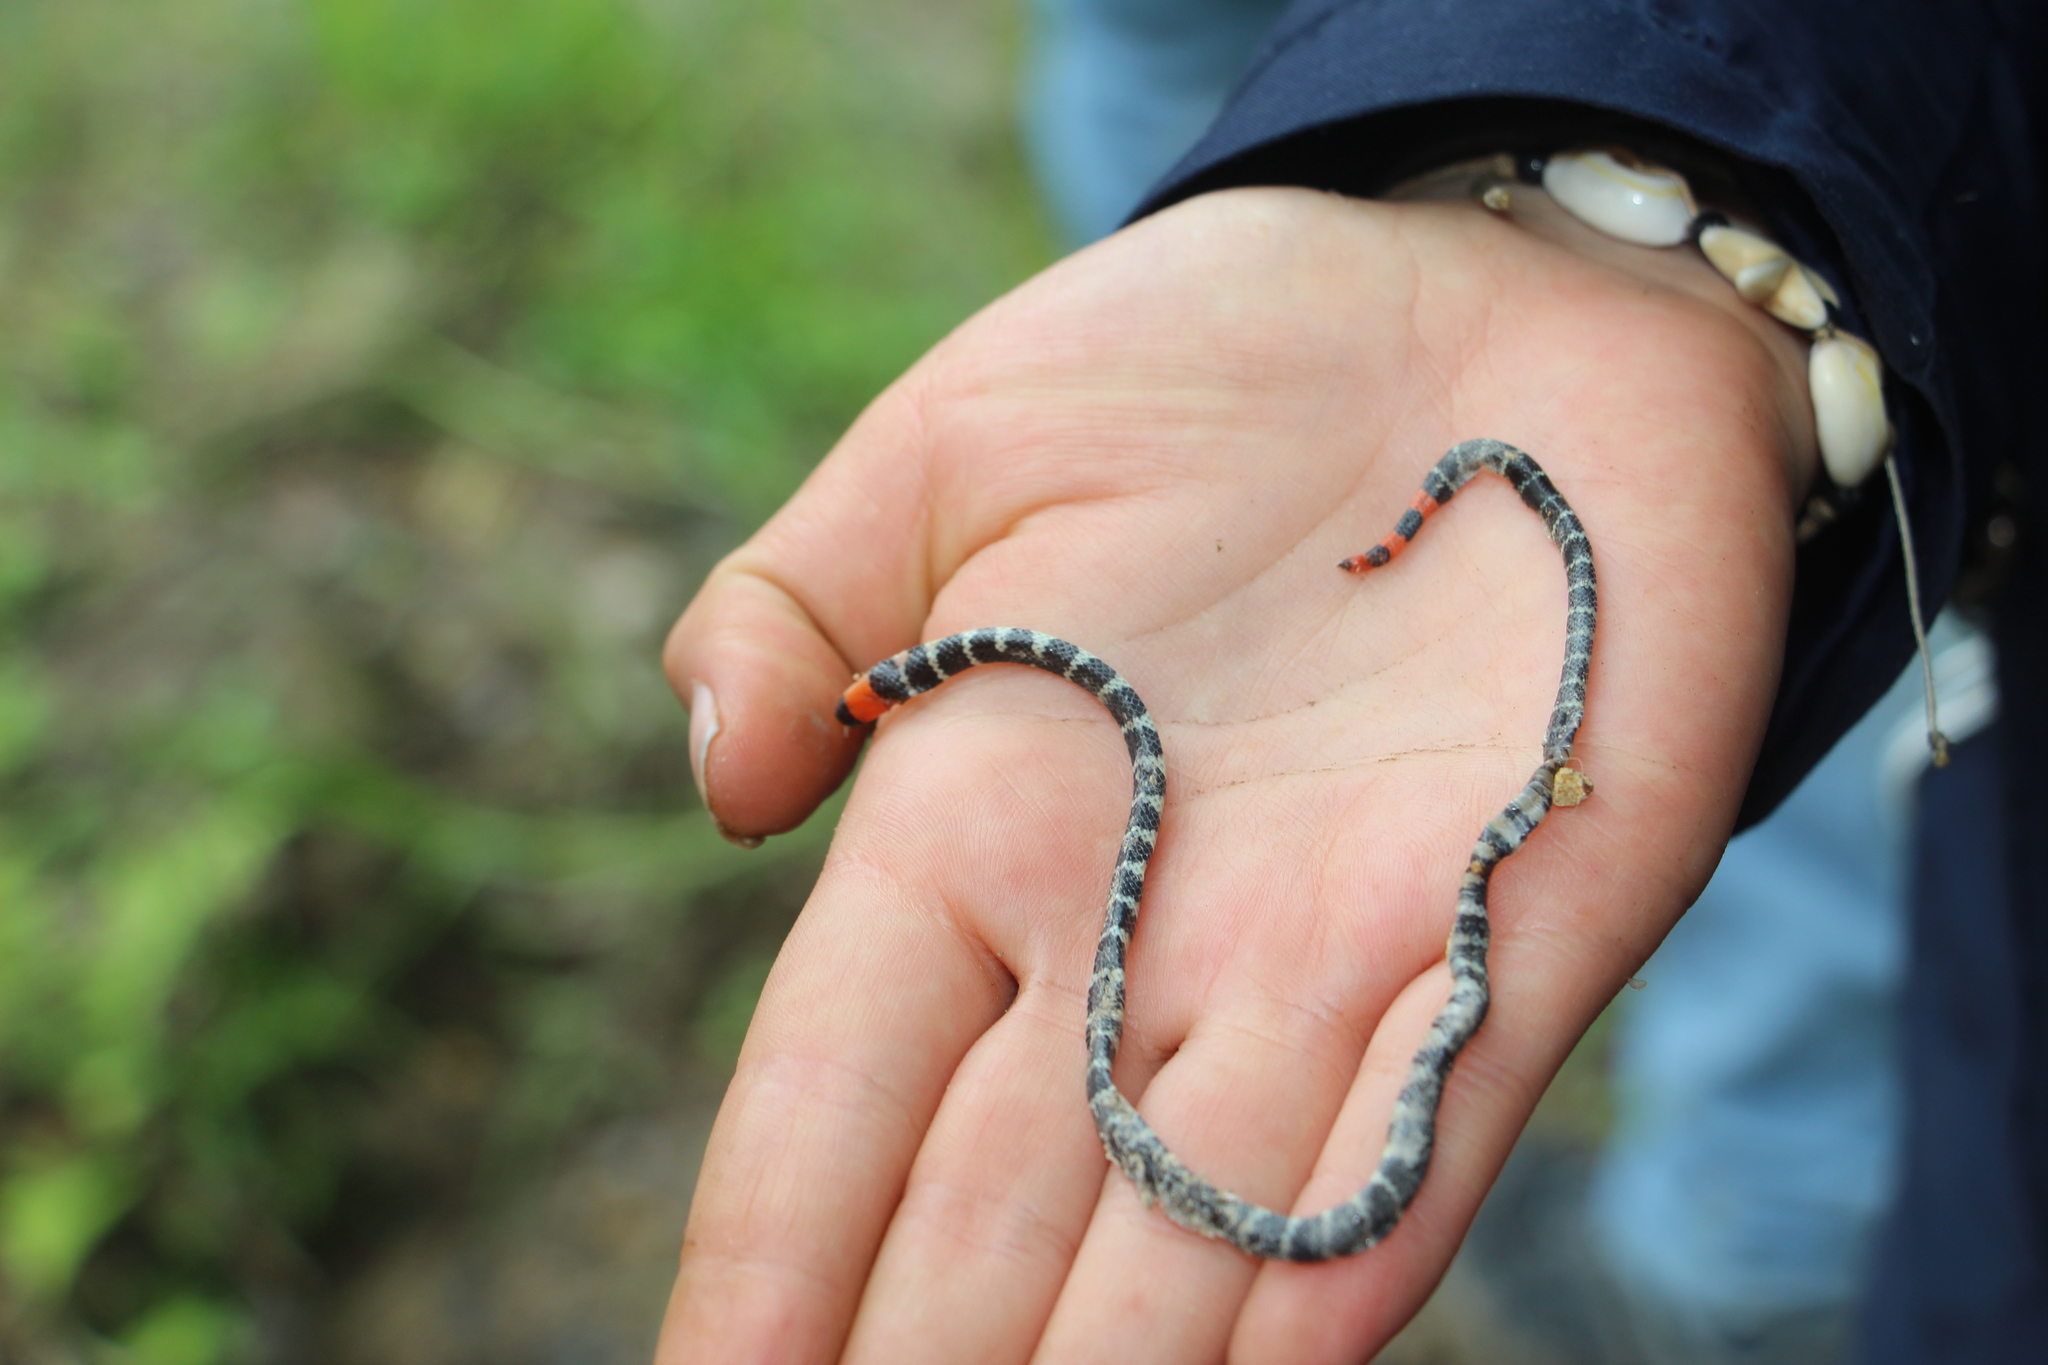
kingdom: Animalia
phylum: Chordata
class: Squamata
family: Elapidae
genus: Micrurus
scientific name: Micrurus mipartitus
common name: Redtail coral snake
